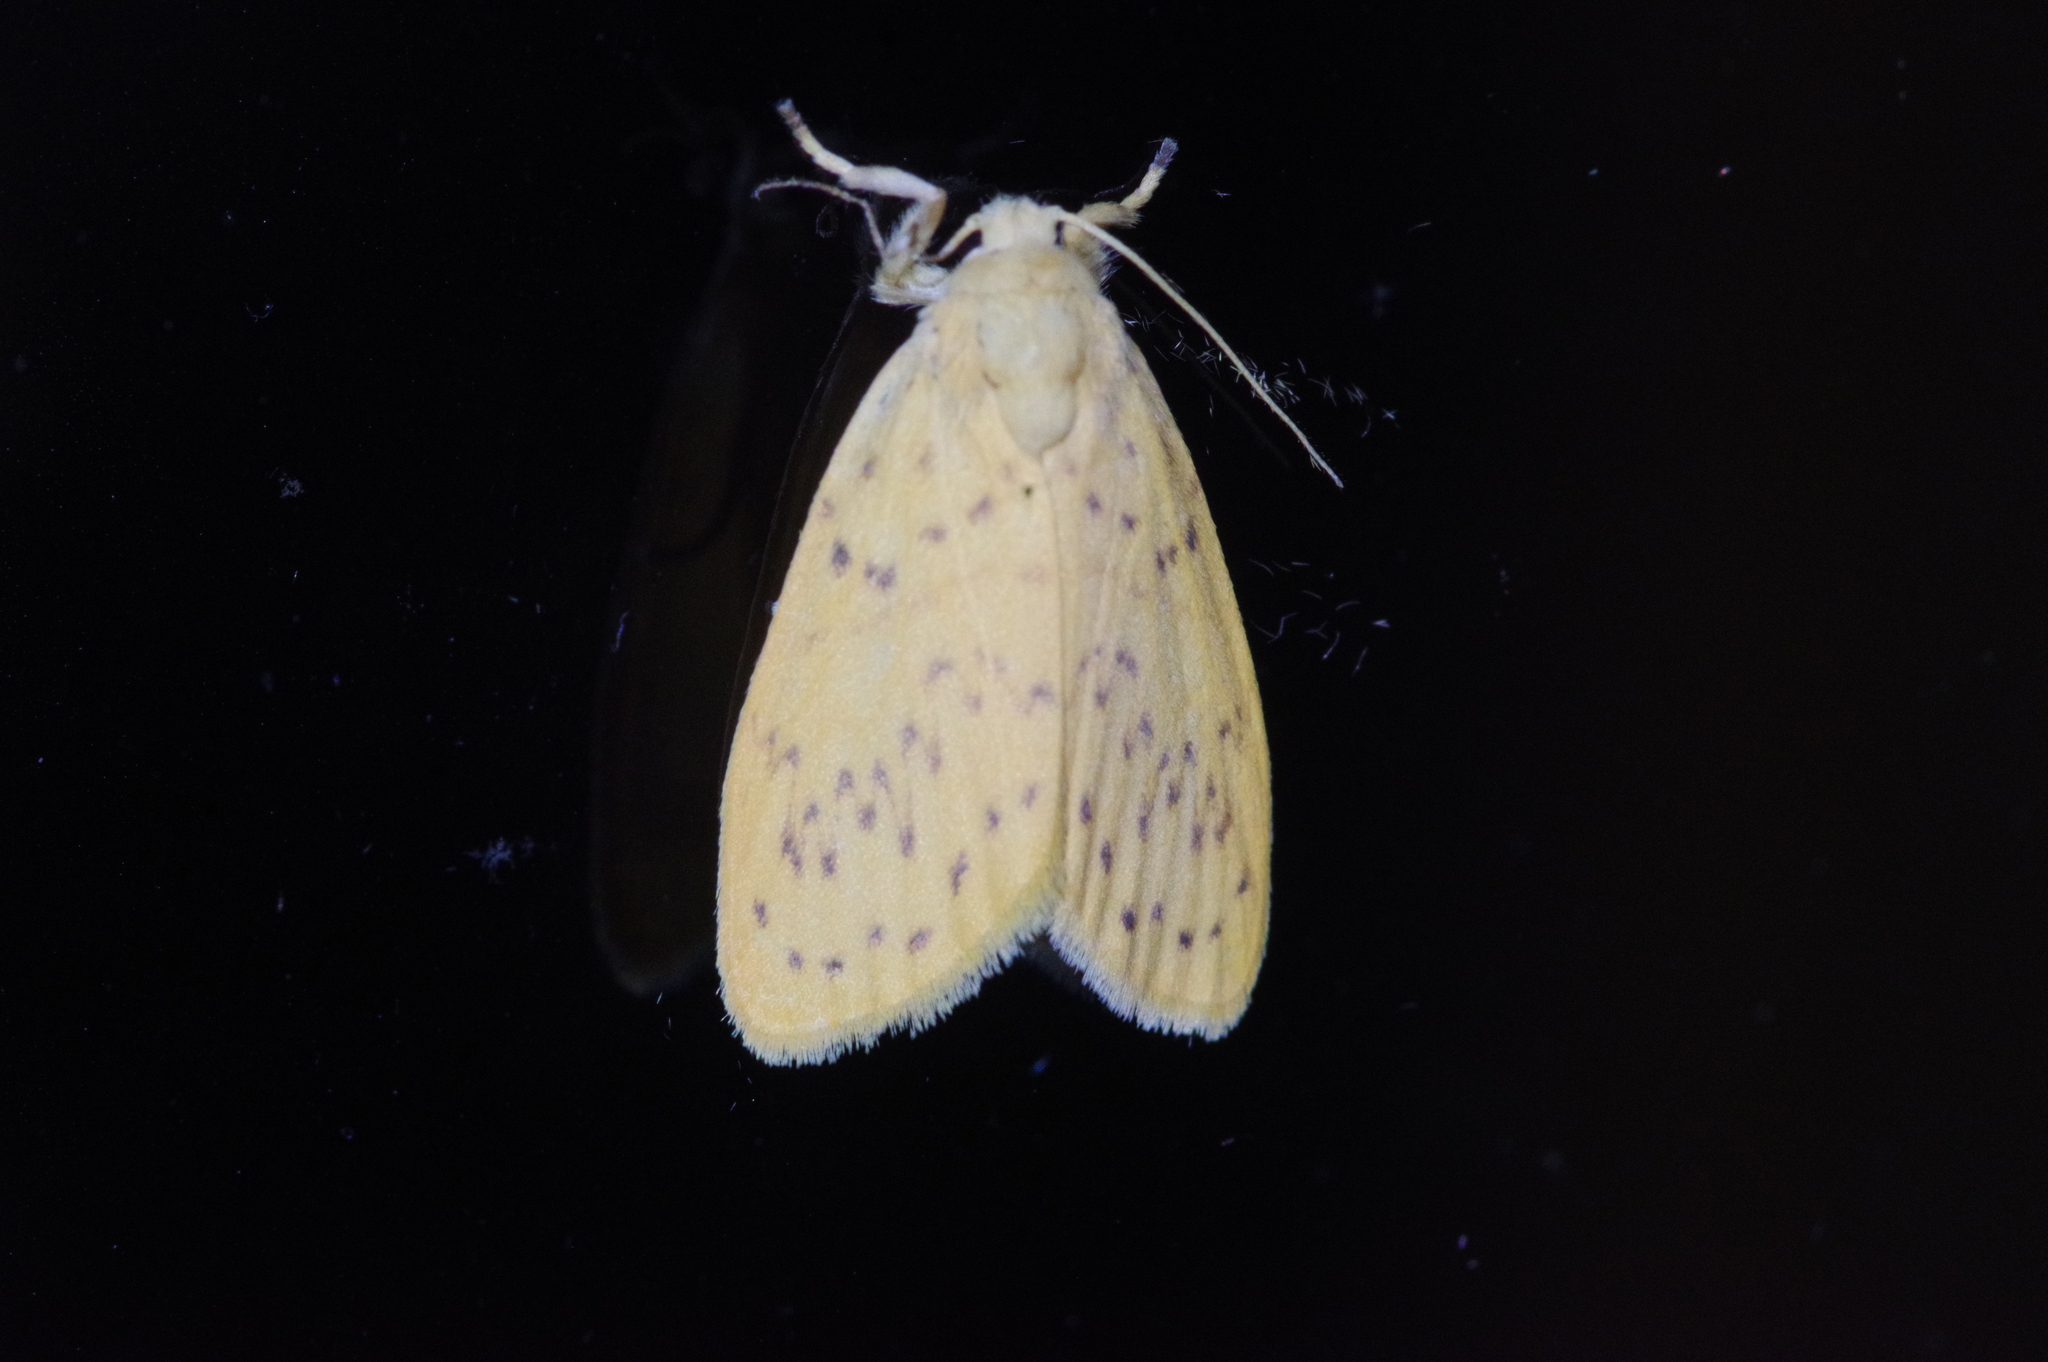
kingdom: Animalia
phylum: Arthropoda
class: Insecta
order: Lepidoptera
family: Erebidae
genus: Huangilene
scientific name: Huangilene alikangiae
